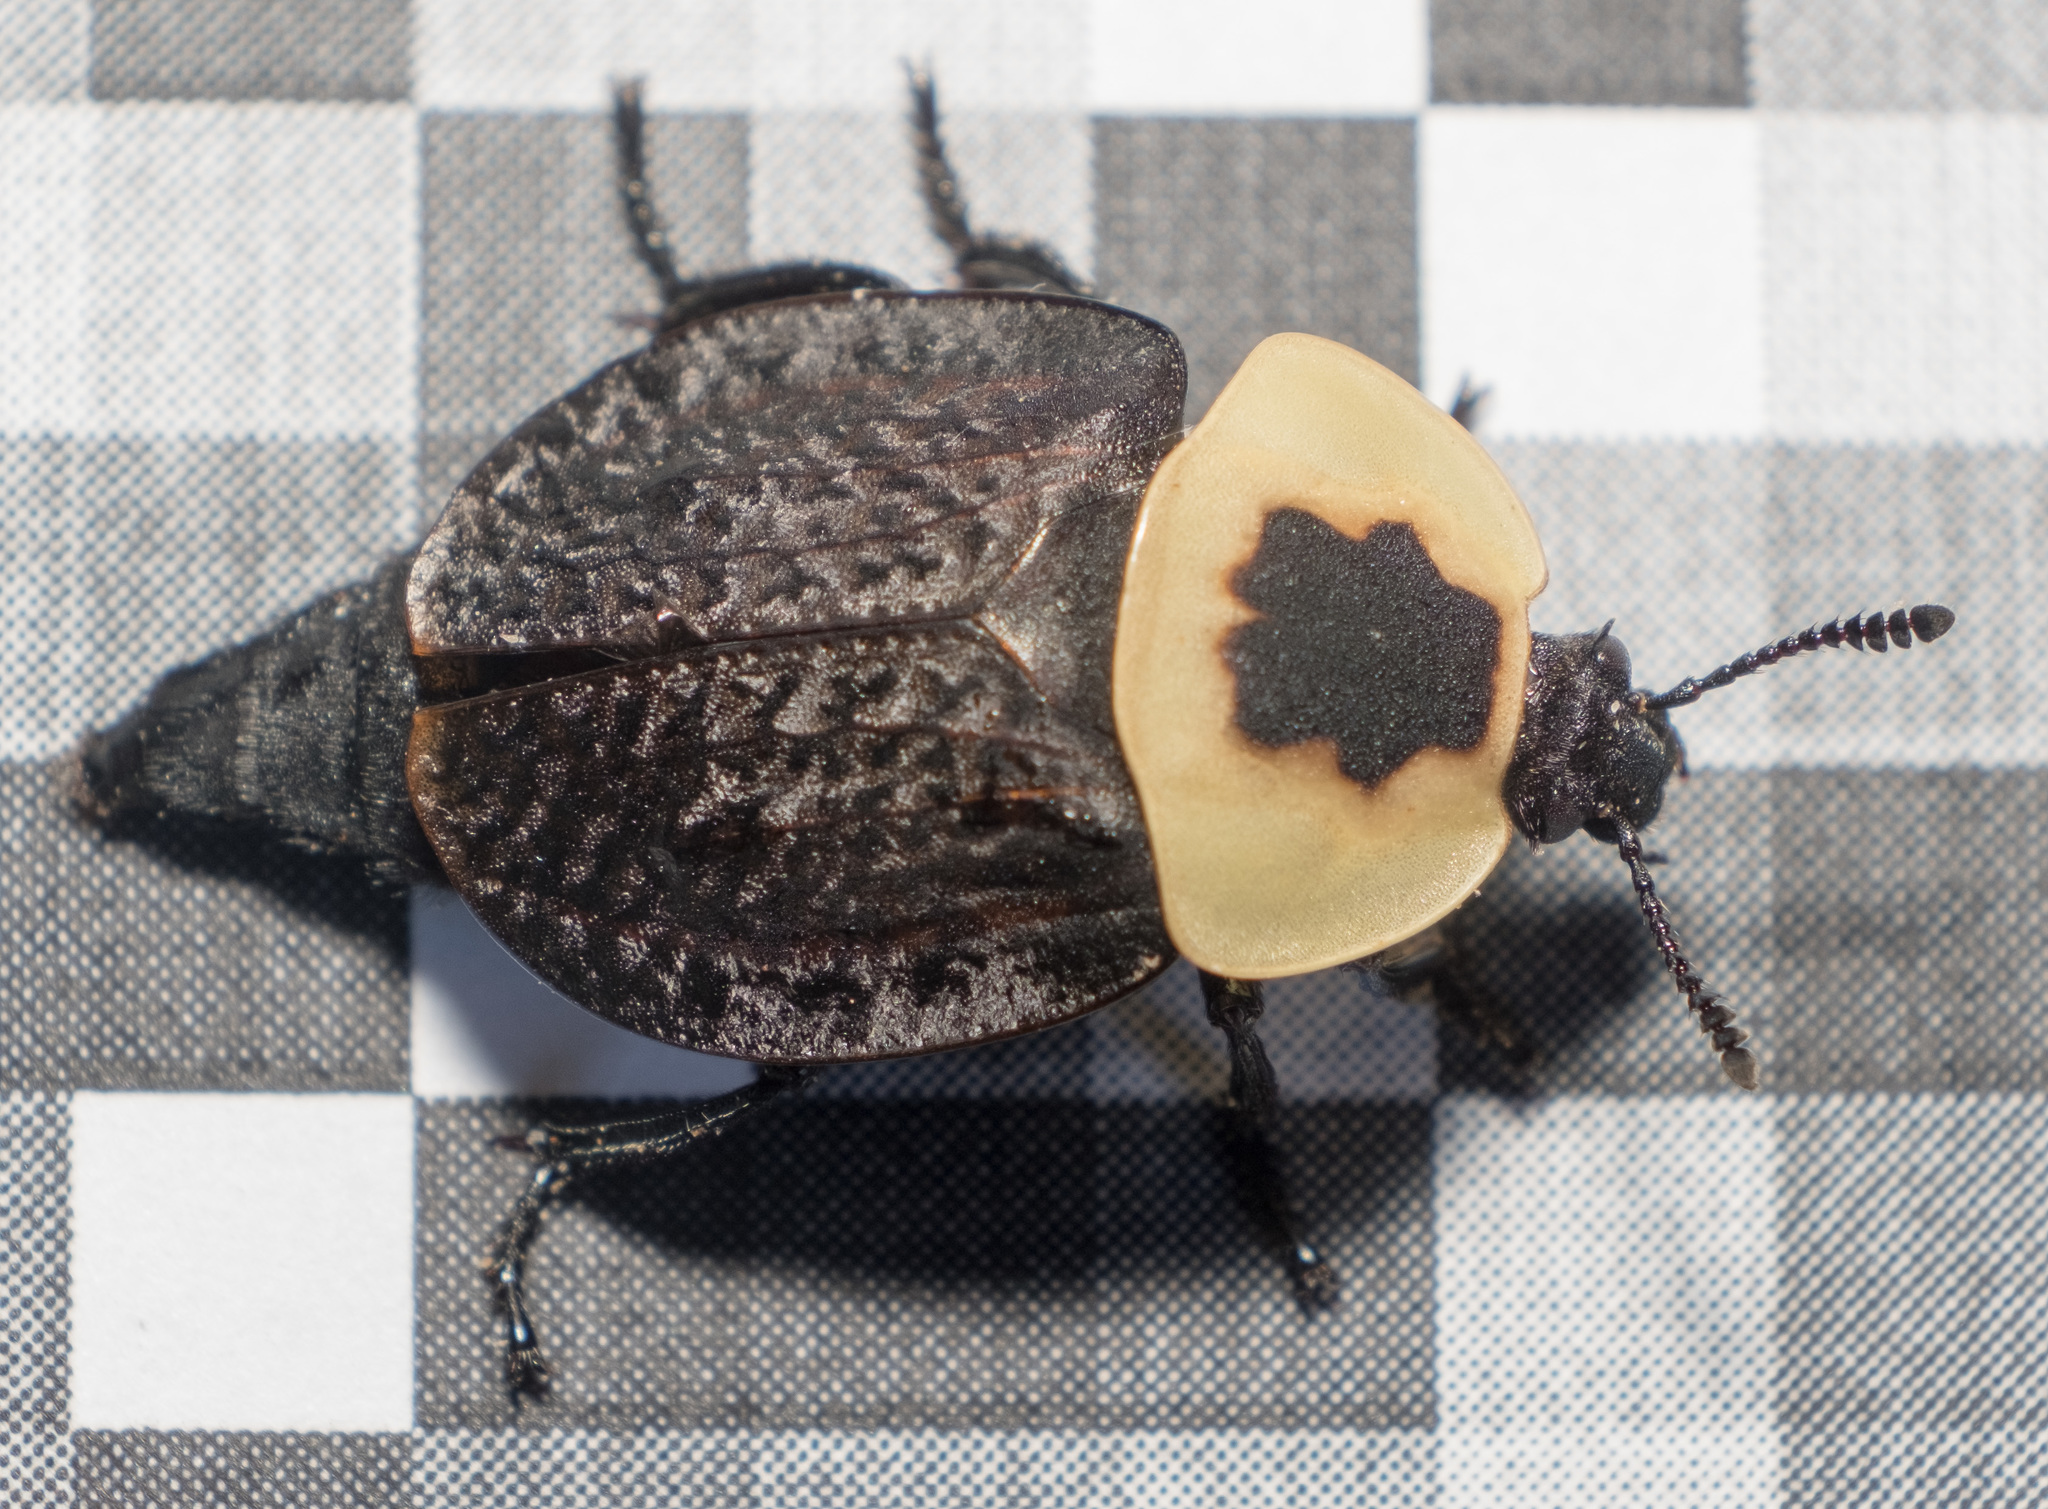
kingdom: Animalia
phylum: Arthropoda
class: Insecta
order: Coleoptera
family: Staphylinidae
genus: Necrophila
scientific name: Necrophila americana
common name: American carrion beetle
